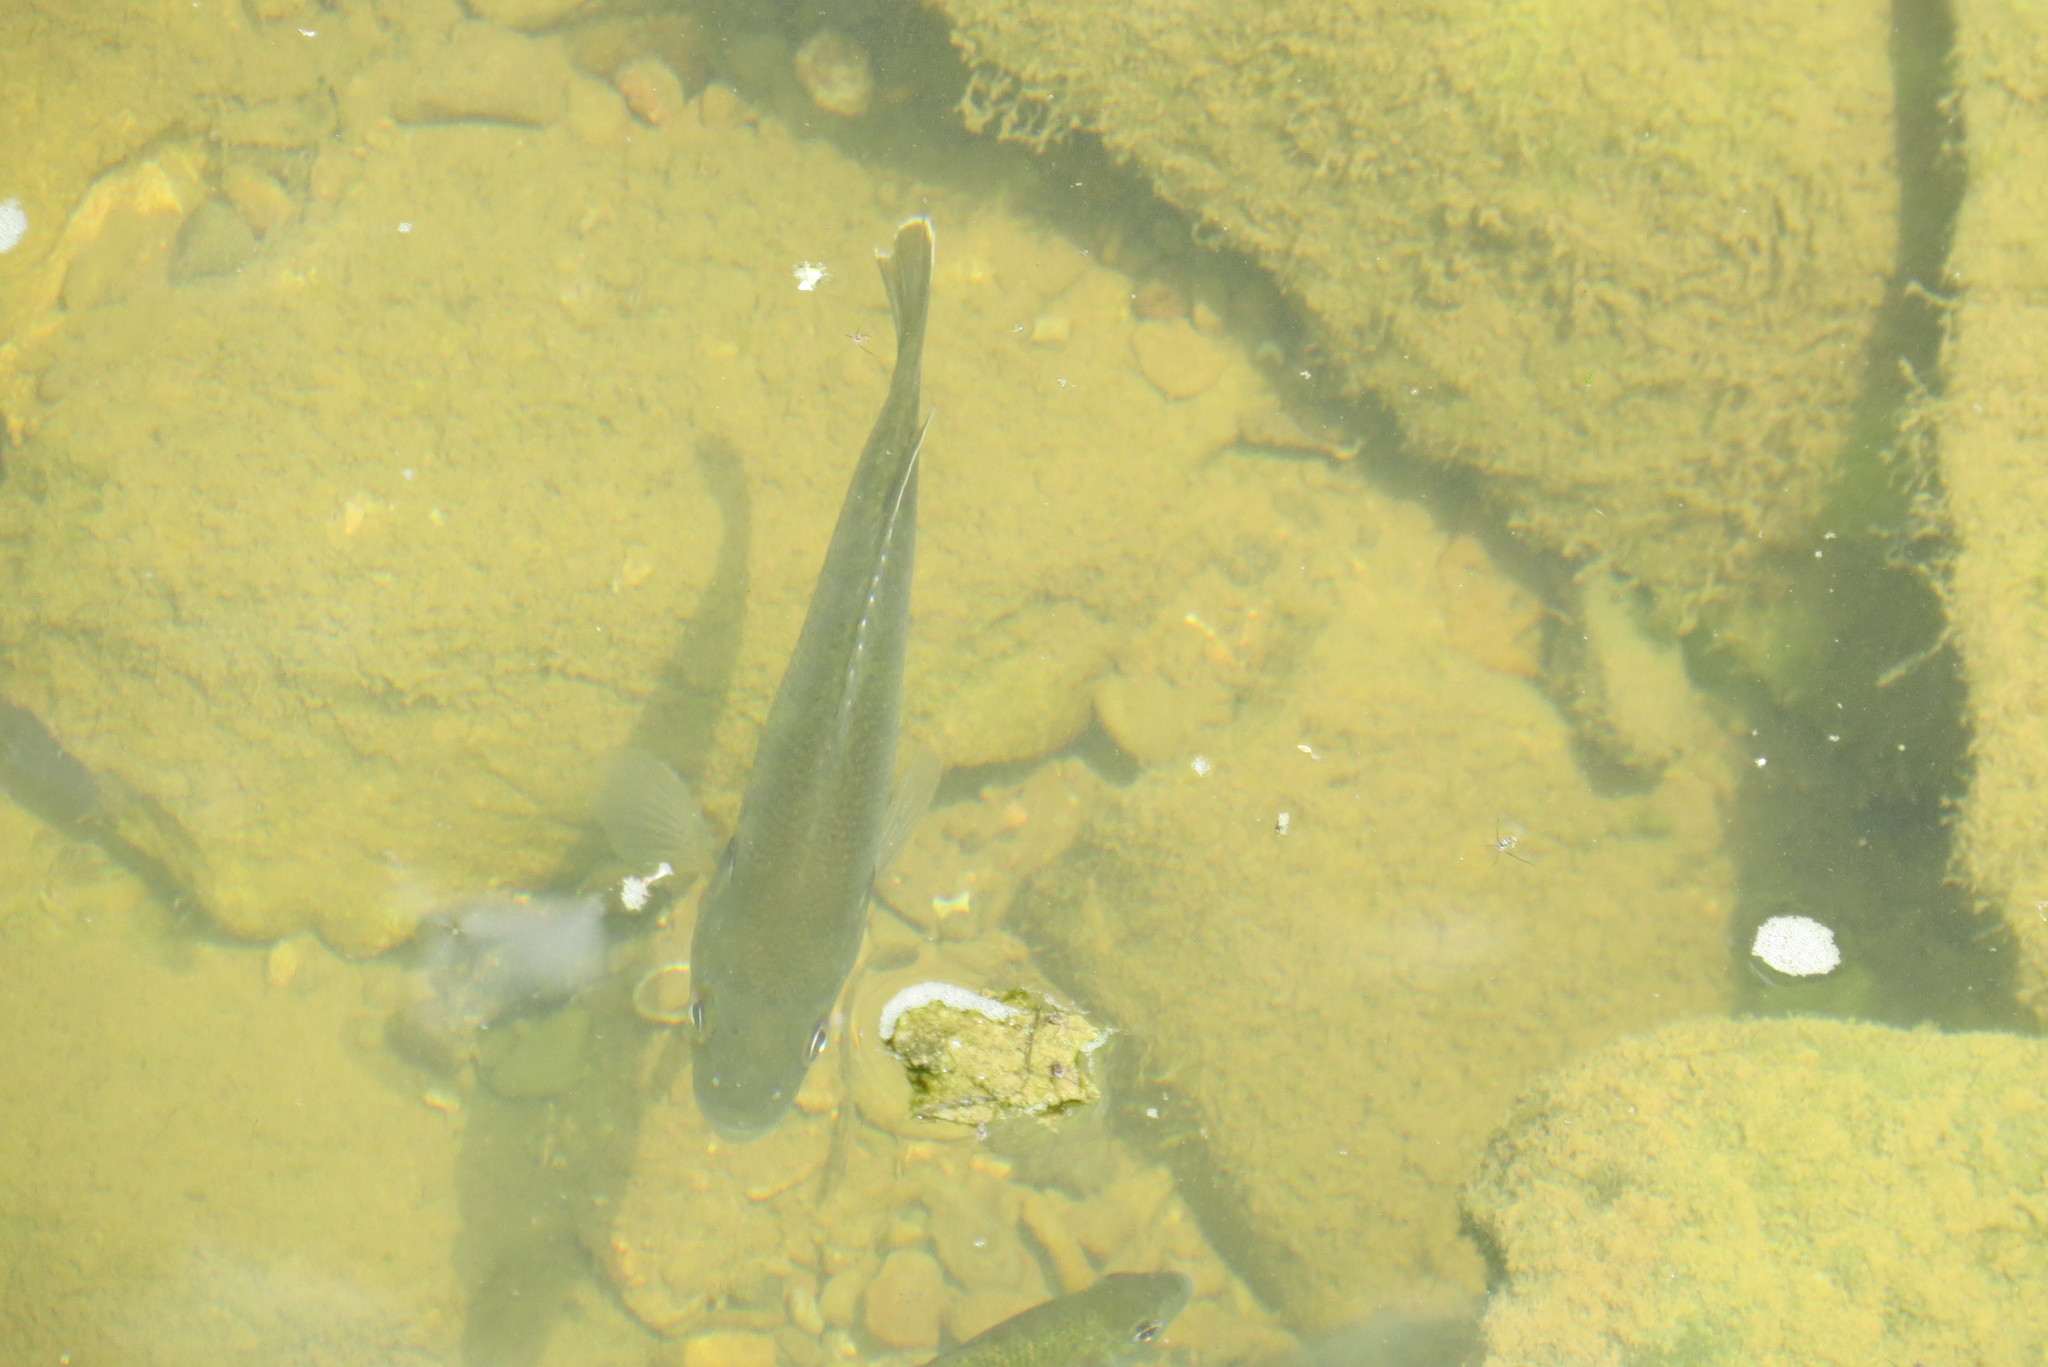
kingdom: Animalia
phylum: Chordata
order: Perciformes
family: Centrarchidae
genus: Lepomis
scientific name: Lepomis
